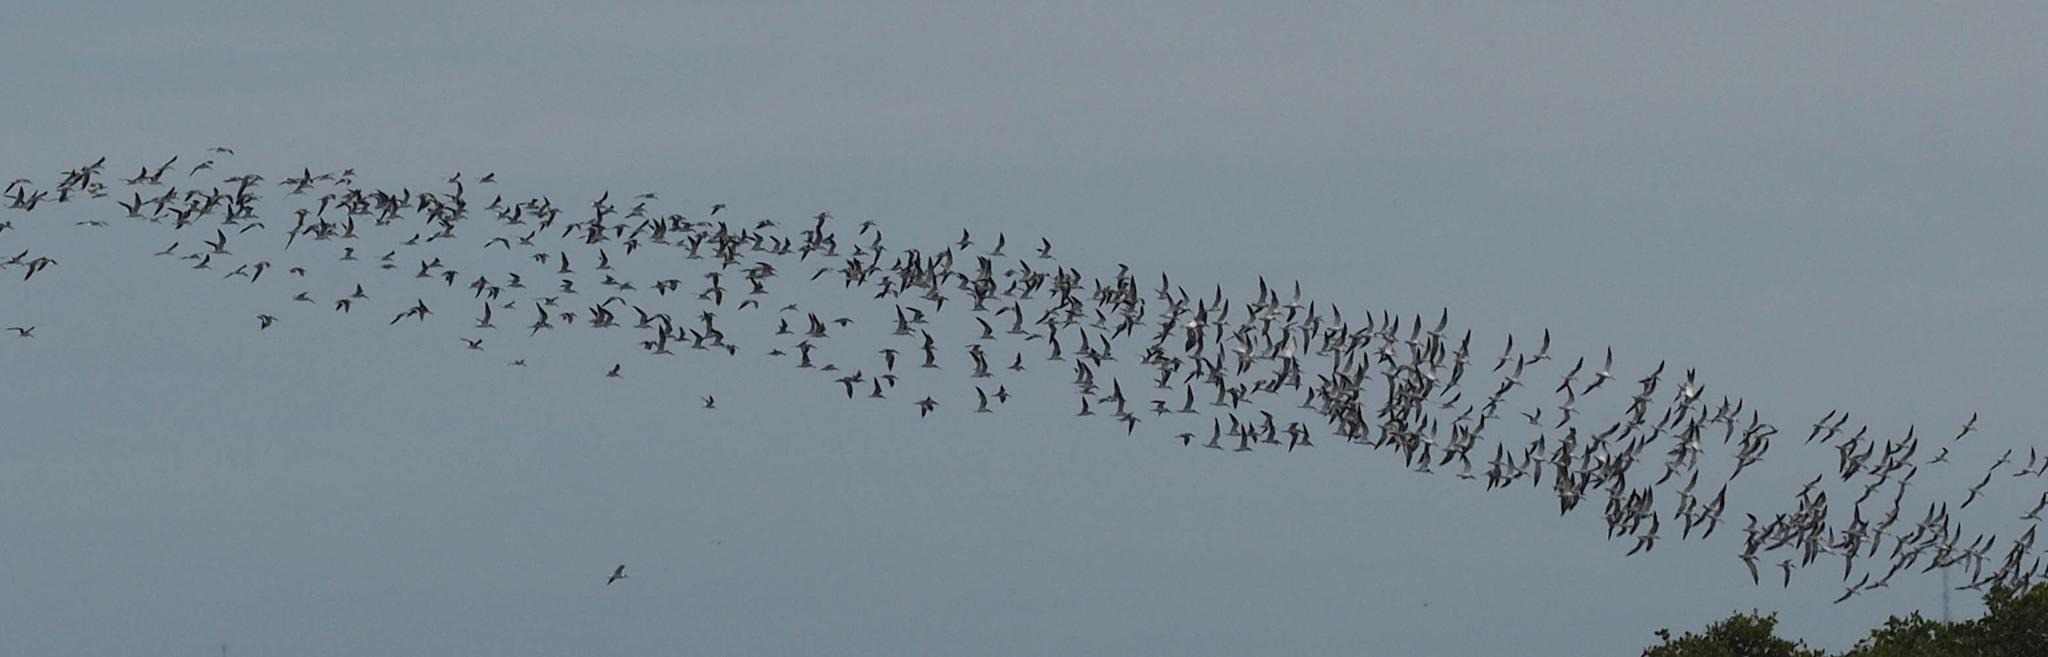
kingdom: Animalia
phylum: Chordata
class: Aves
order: Charadriiformes
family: Laridae
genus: Rynchops
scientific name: Rynchops niger
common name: Black skimmer
